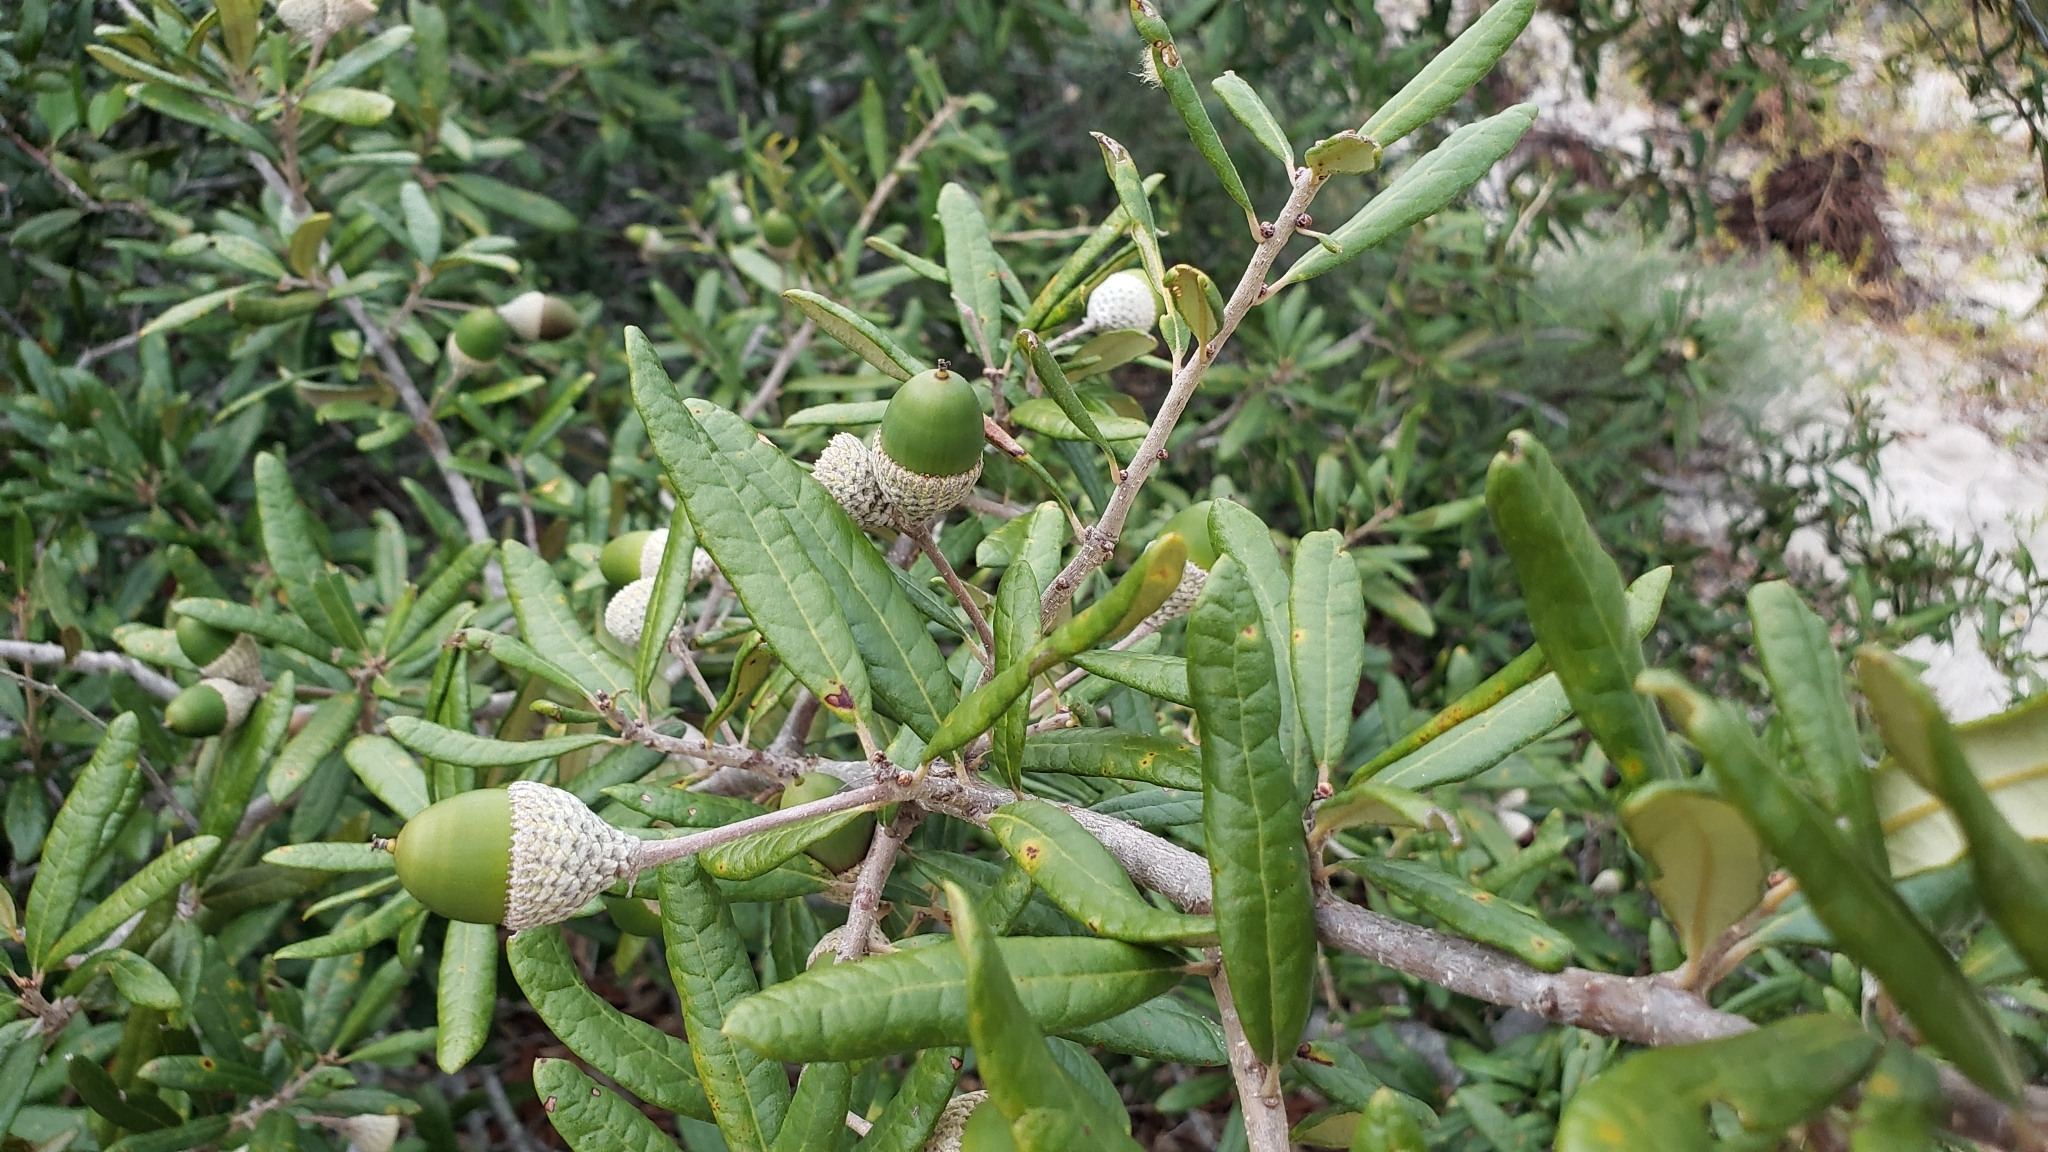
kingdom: Plantae
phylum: Tracheophyta
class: Magnoliopsida
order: Fagales
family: Fagaceae
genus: Quercus
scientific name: Quercus geminata
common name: Sand live oak
